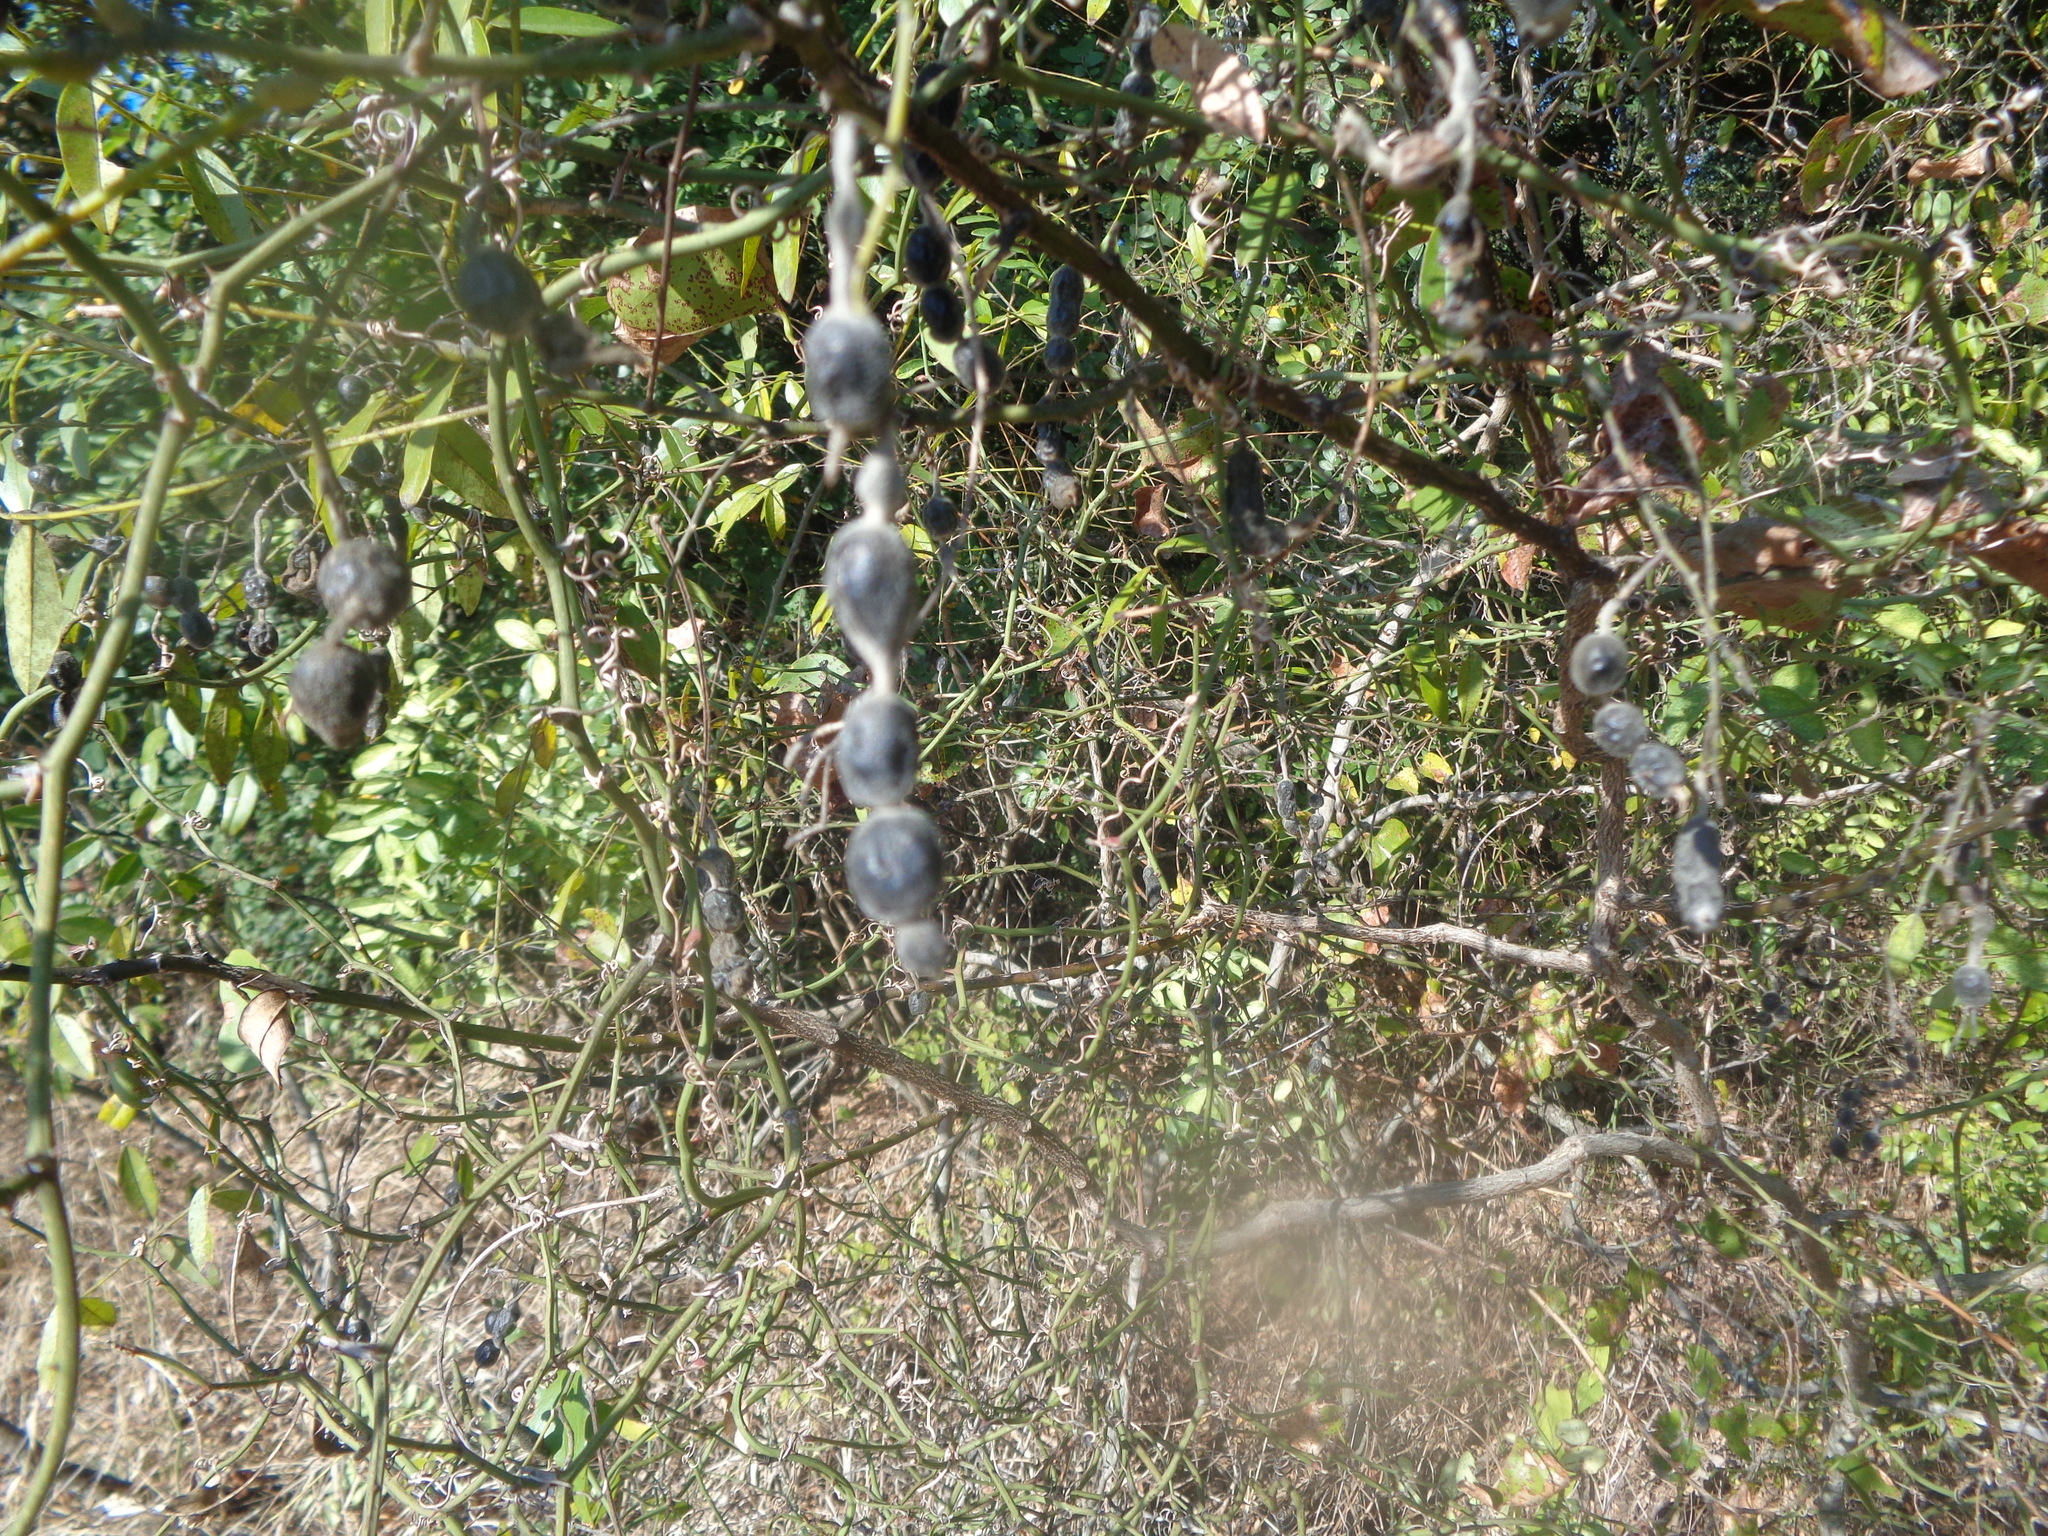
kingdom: Plantae
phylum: Tracheophyta
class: Magnoliopsida
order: Fabales
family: Fabaceae
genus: Styphnolobium
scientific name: Styphnolobium affine
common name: Texas sophora
